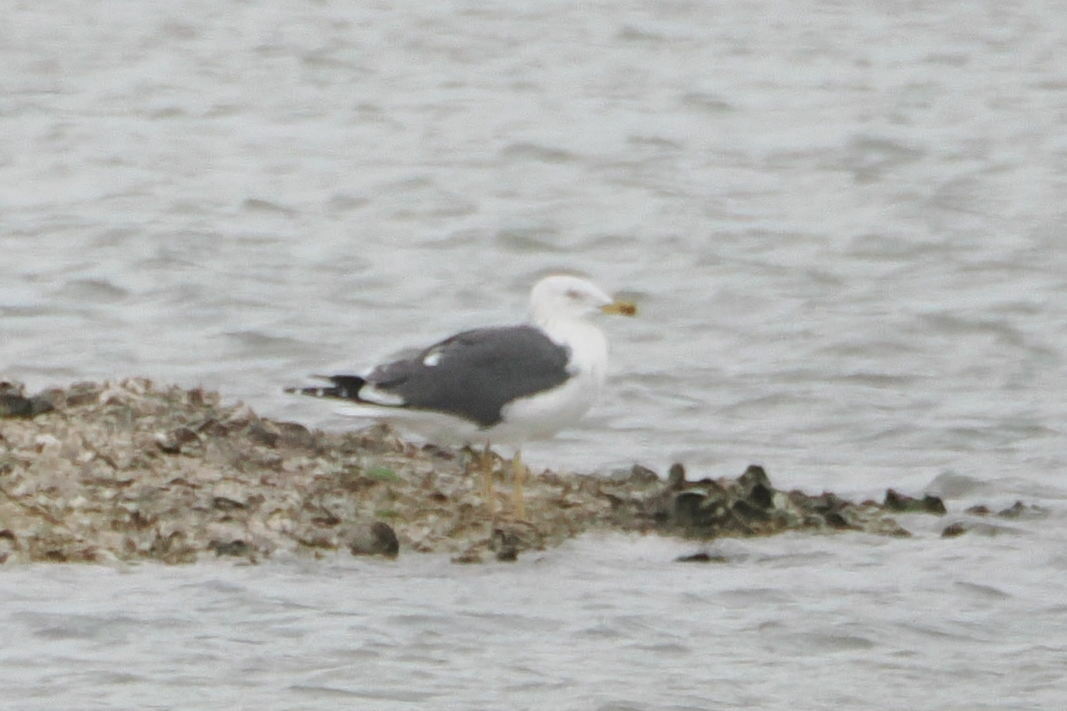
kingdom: Animalia
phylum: Chordata
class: Aves
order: Charadriiformes
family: Laridae
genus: Larus
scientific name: Larus fuscus
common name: Lesser black-backed gull
